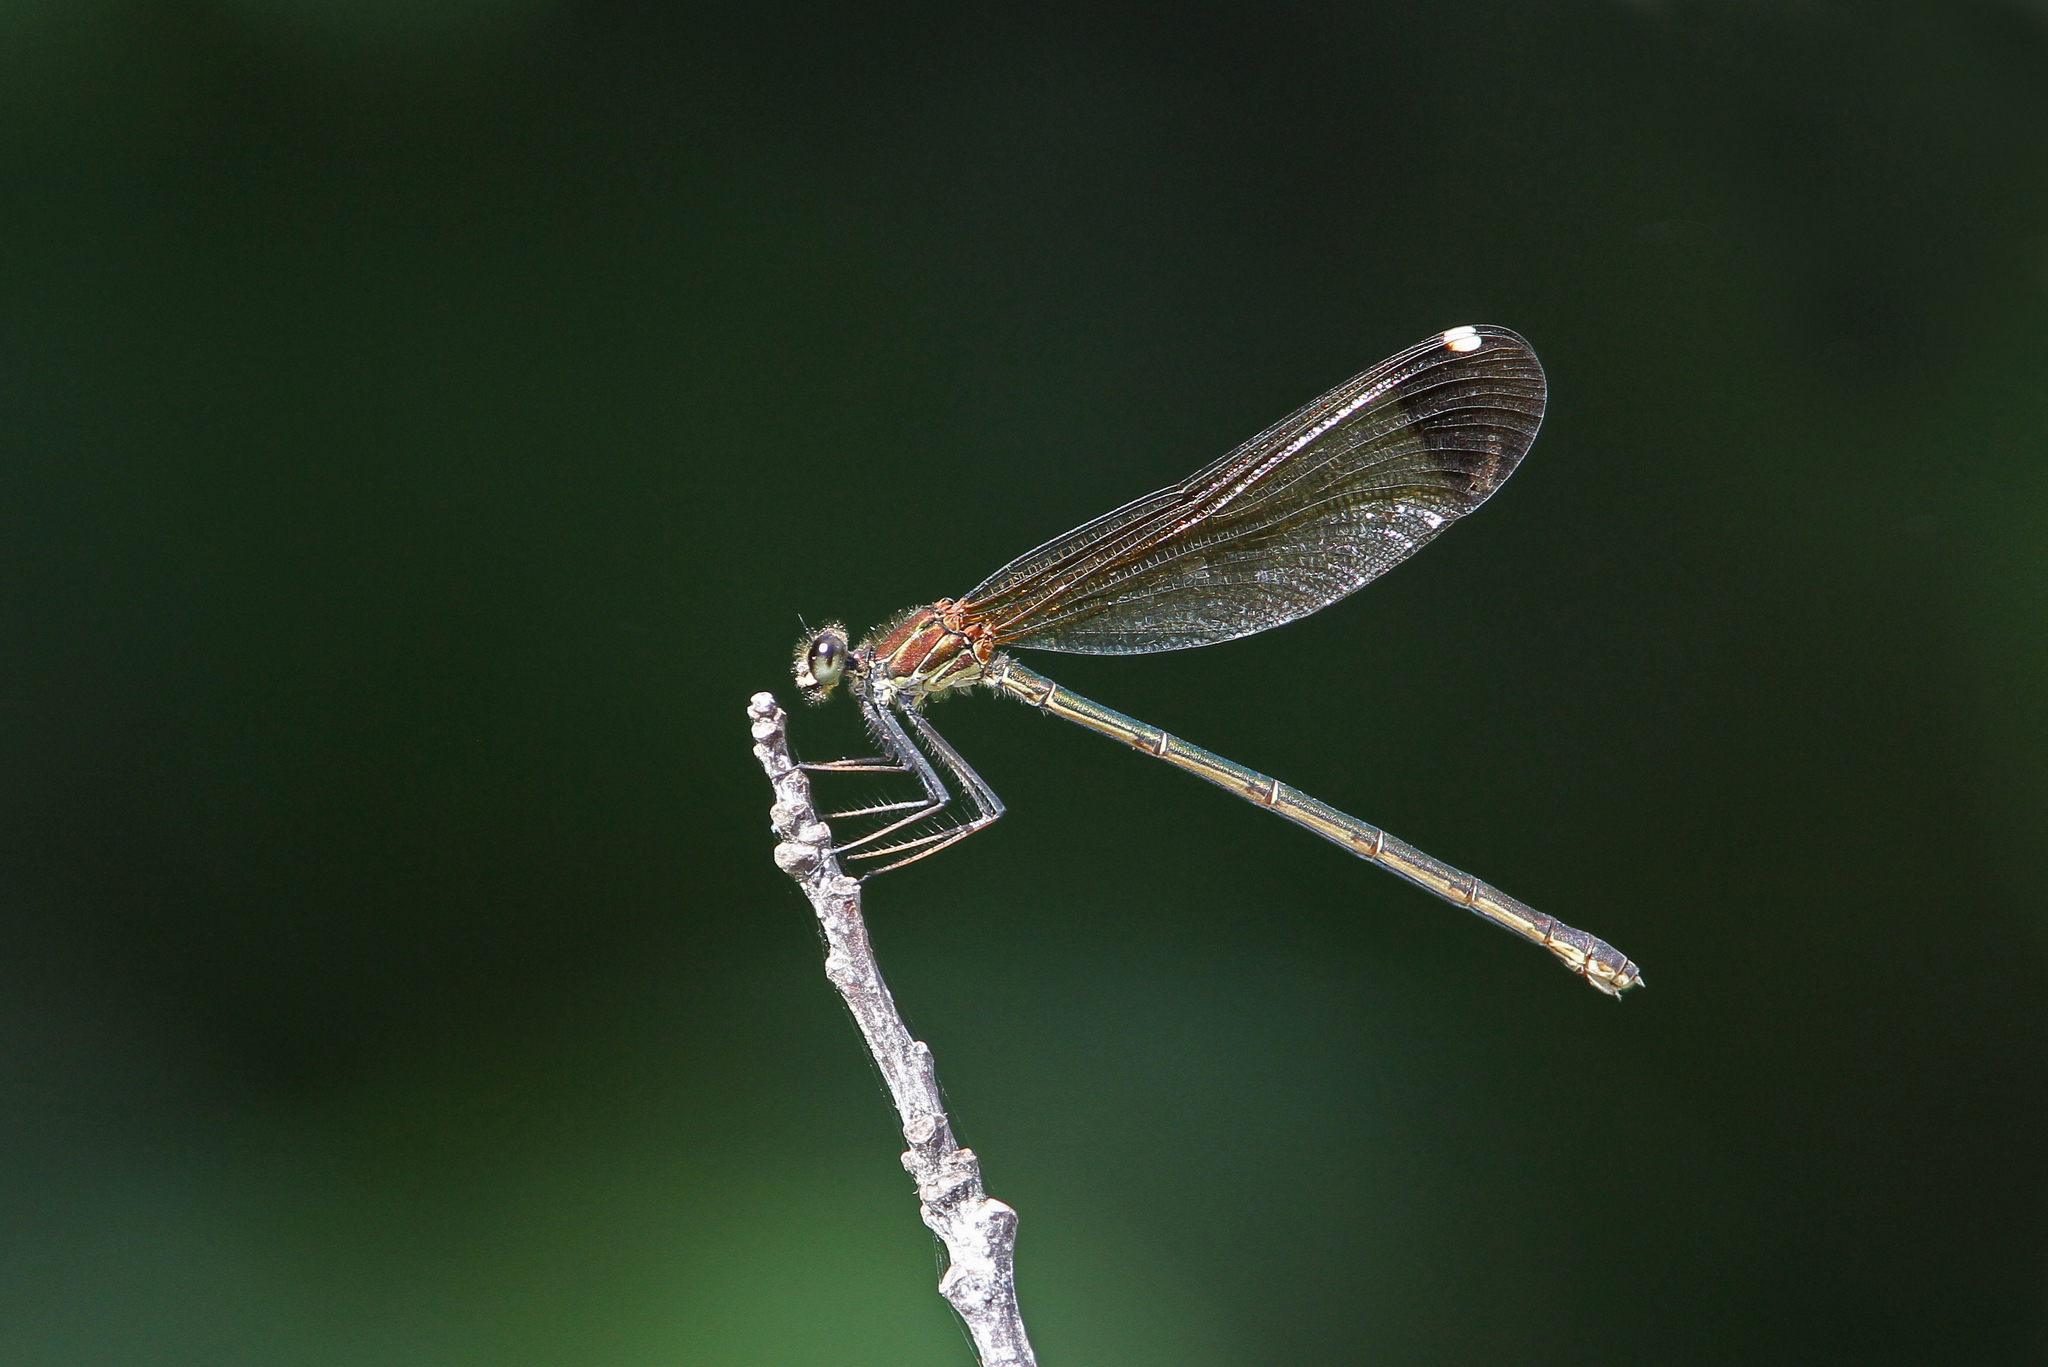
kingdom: Animalia
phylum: Arthropoda
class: Insecta
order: Odonata
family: Calopterygidae
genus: Calopteryx
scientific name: Calopteryx haemorrhoidalis
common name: Copper demoiselle
